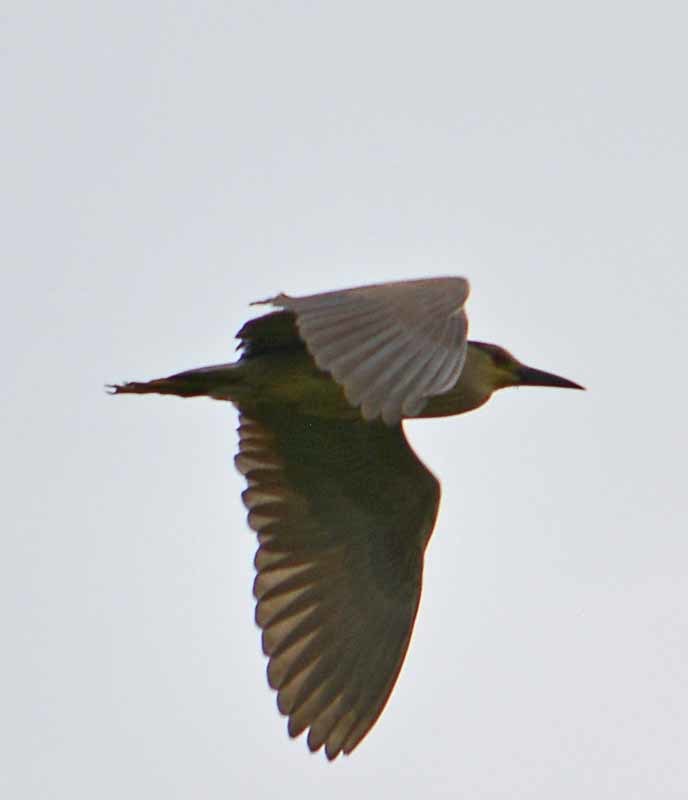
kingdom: Animalia
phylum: Chordata
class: Aves
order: Pelecaniformes
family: Ardeidae
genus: Nycticorax
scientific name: Nycticorax nycticorax
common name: Black-crowned night heron
